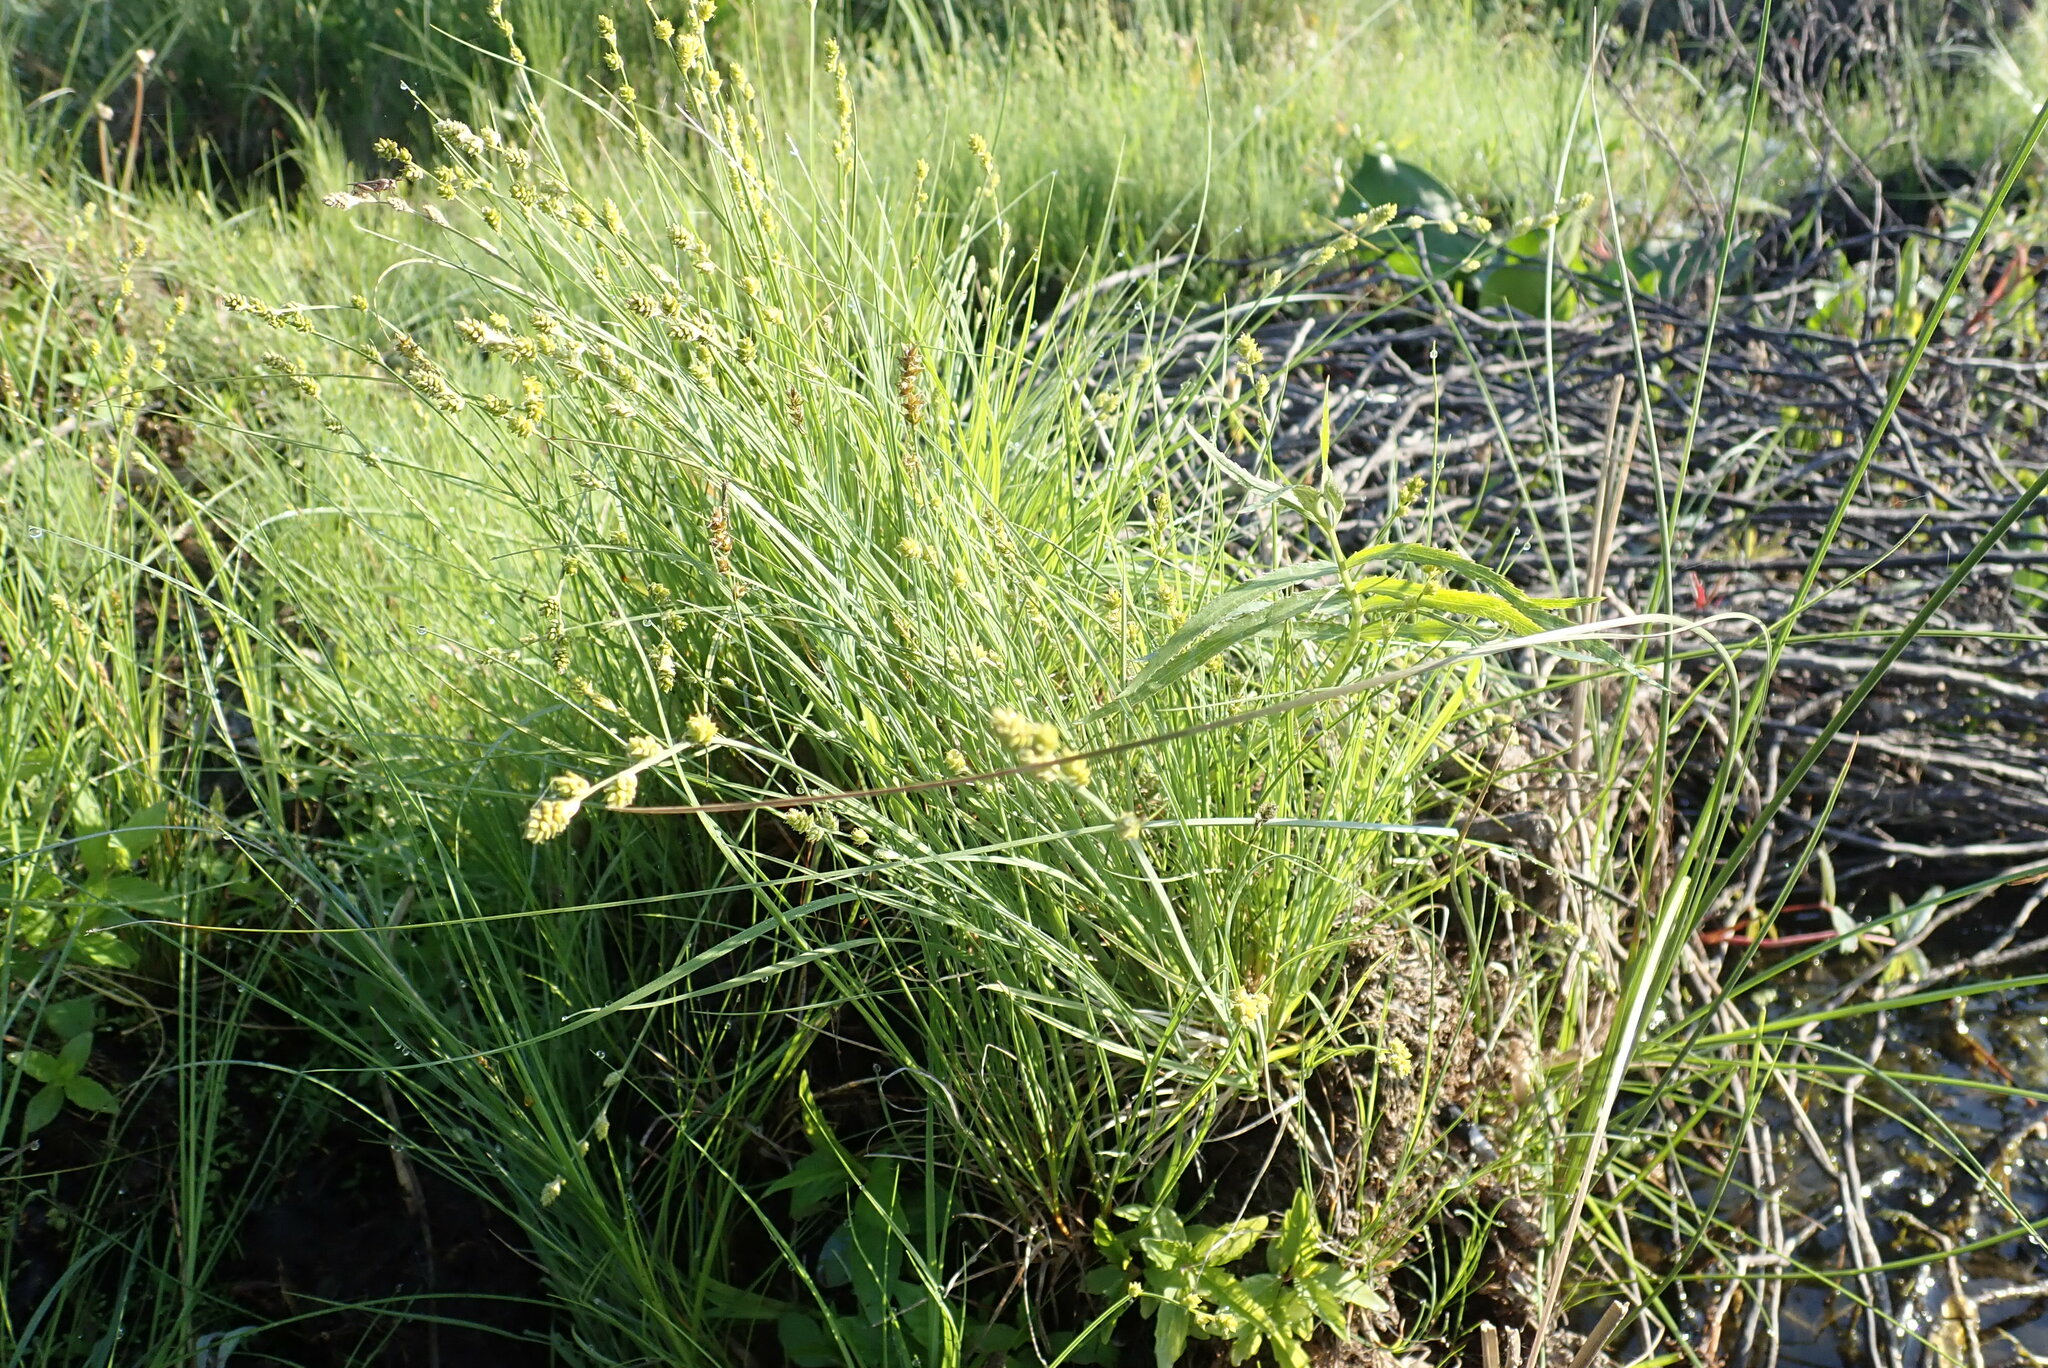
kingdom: Plantae
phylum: Tracheophyta
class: Liliopsida
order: Poales
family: Cyperaceae
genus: Carex
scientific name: Carex canescens
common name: White sedge
